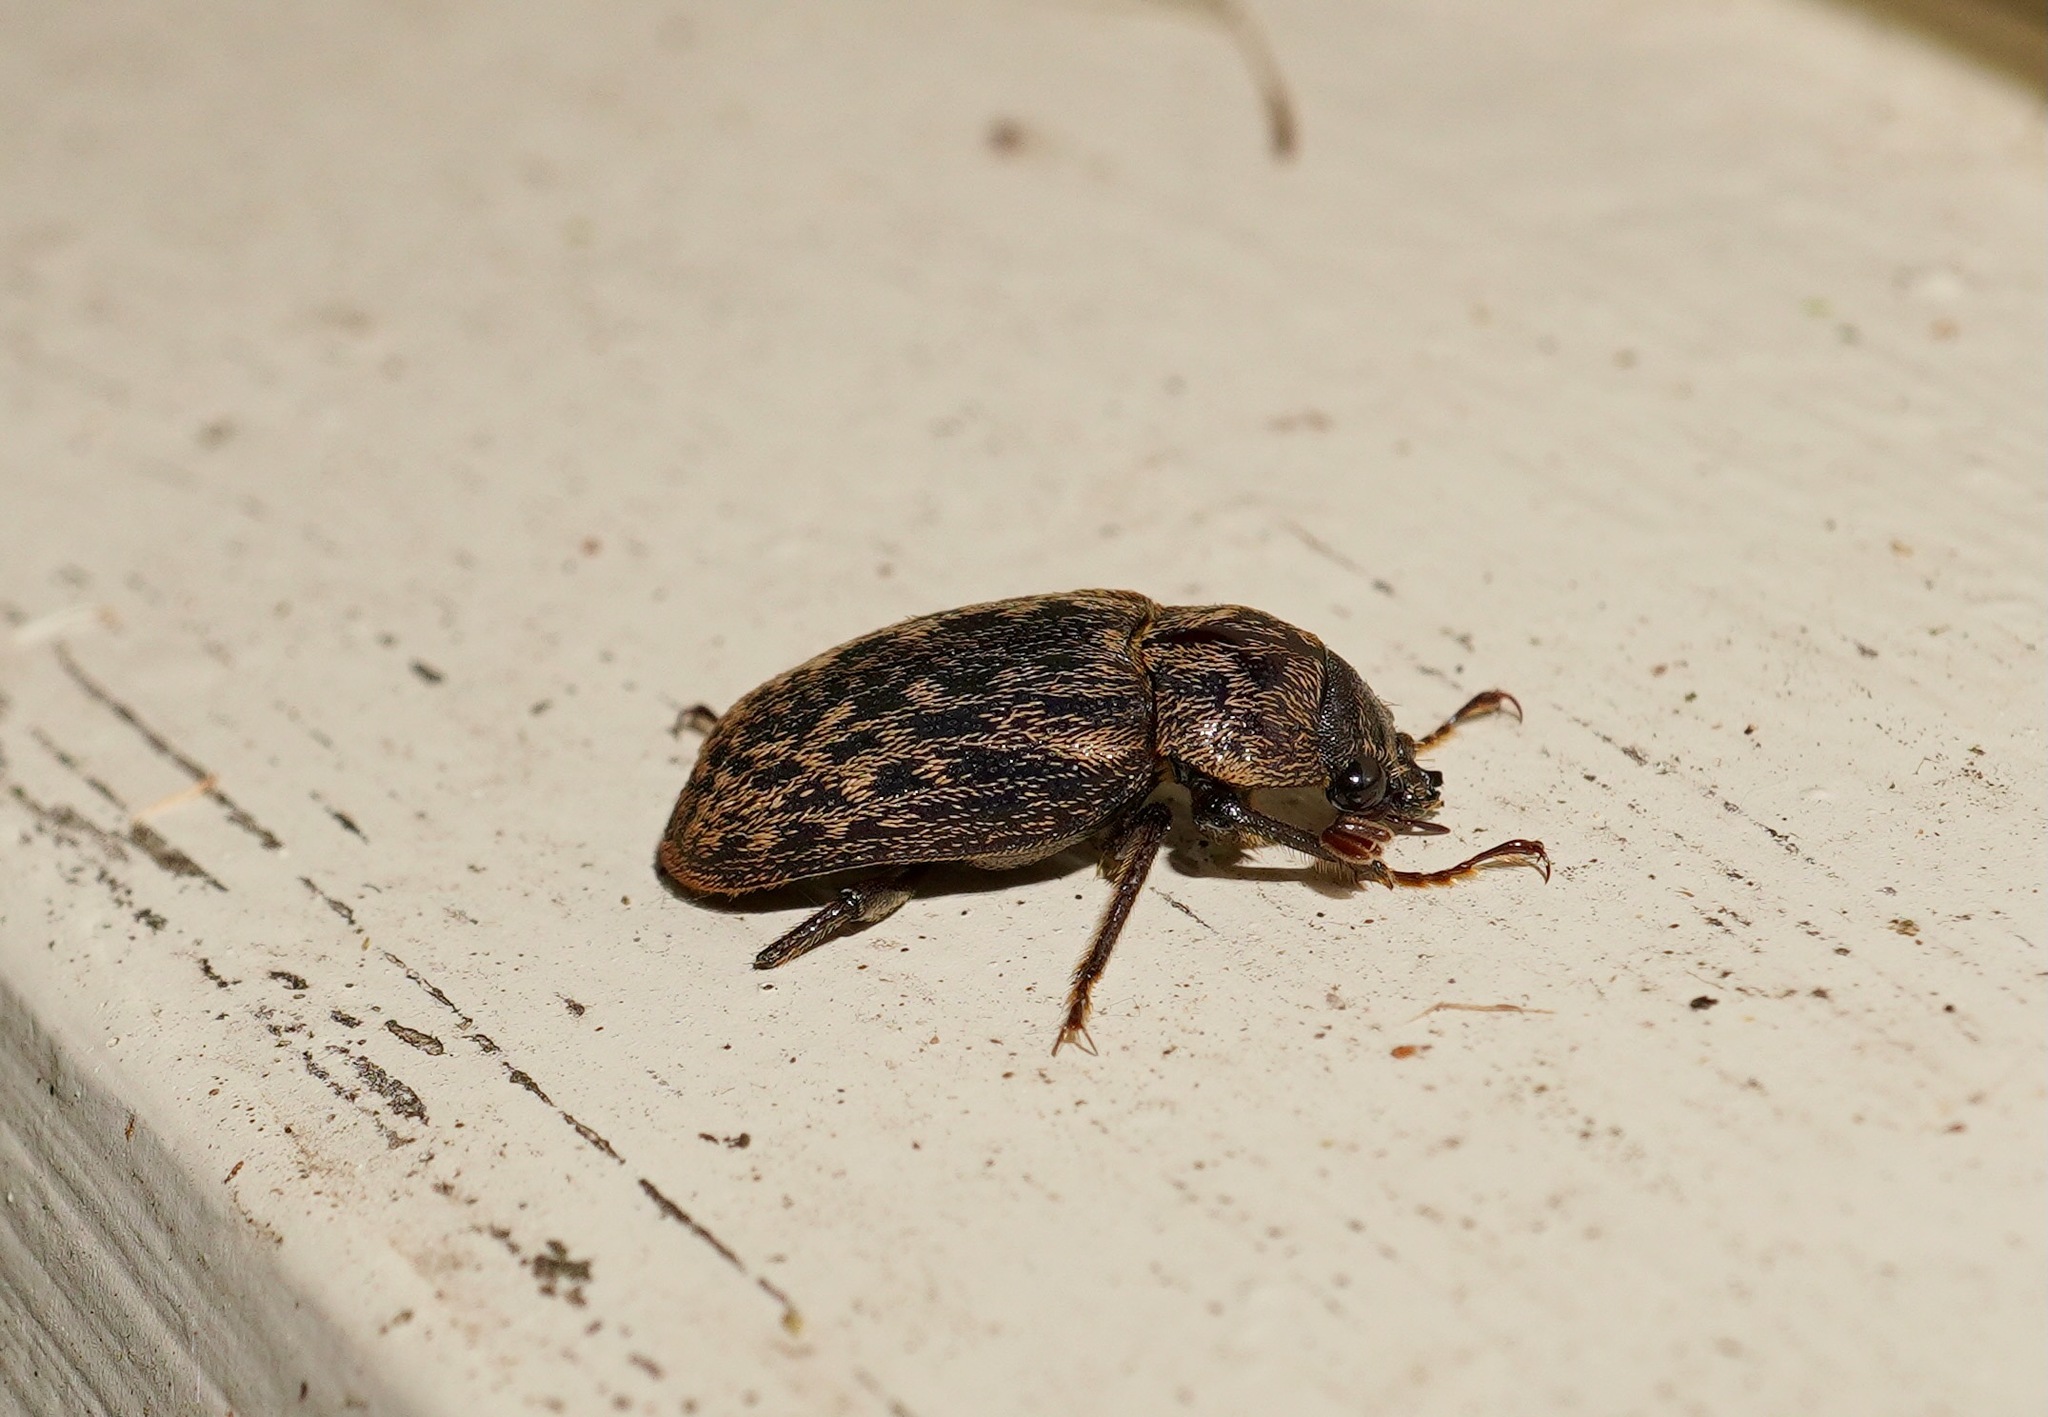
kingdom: Animalia
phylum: Arthropoda
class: Insecta
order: Coleoptera
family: Lucanidae
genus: Mitophyllus
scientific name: Mitophyllus irroratus
